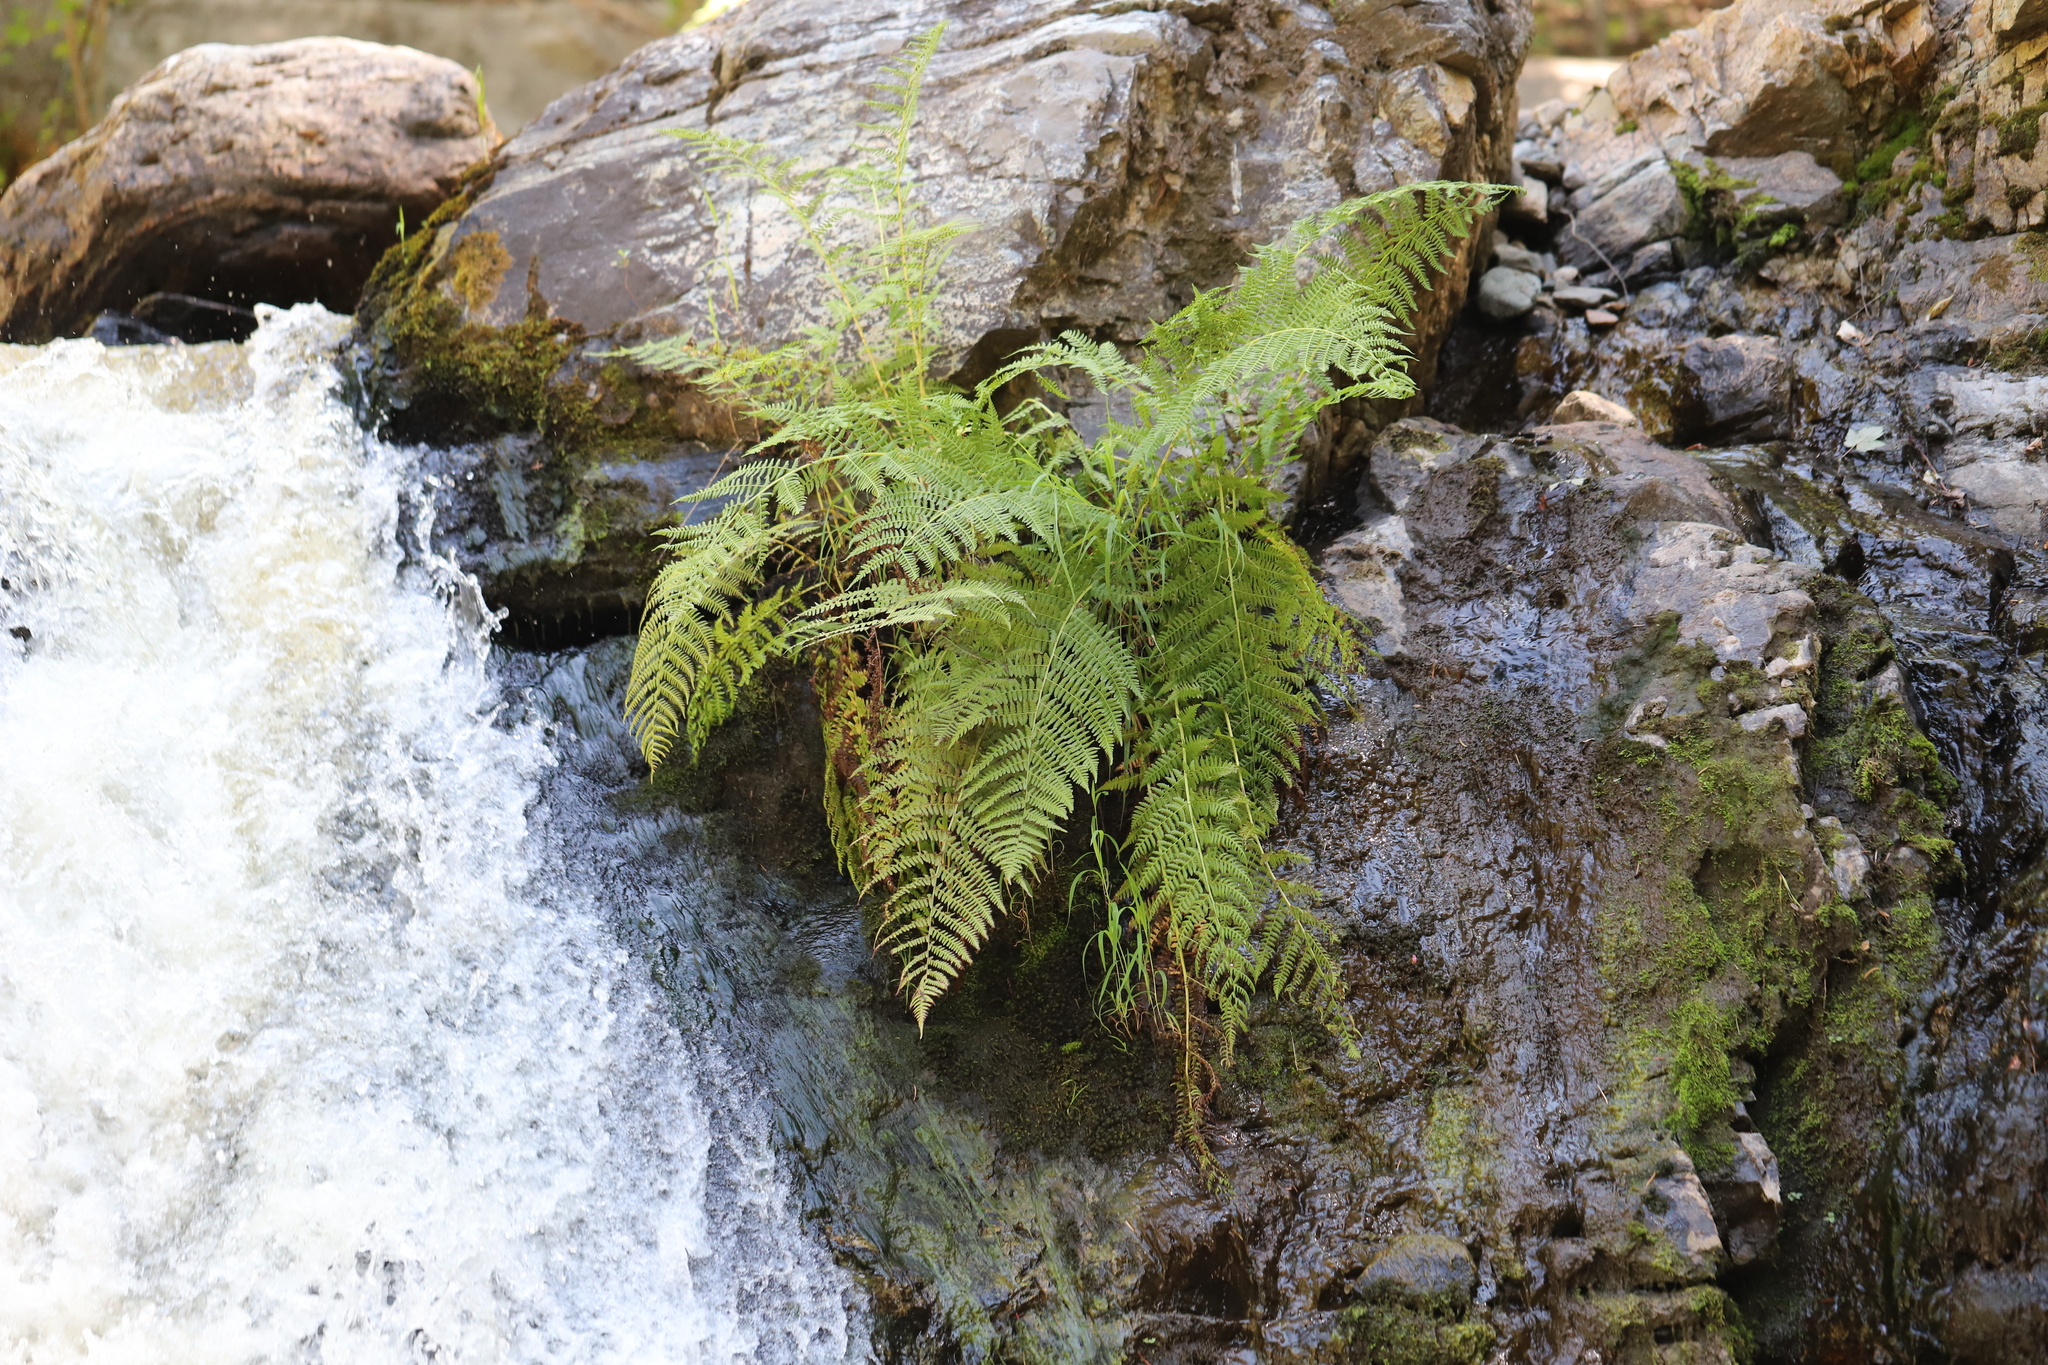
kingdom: Plantae
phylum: Tracheophyta
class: Polypodiopsida
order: Polypodiales
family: Athyriaceae
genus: Athyrium
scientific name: Athyrium filix-femina
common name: Lady fern
